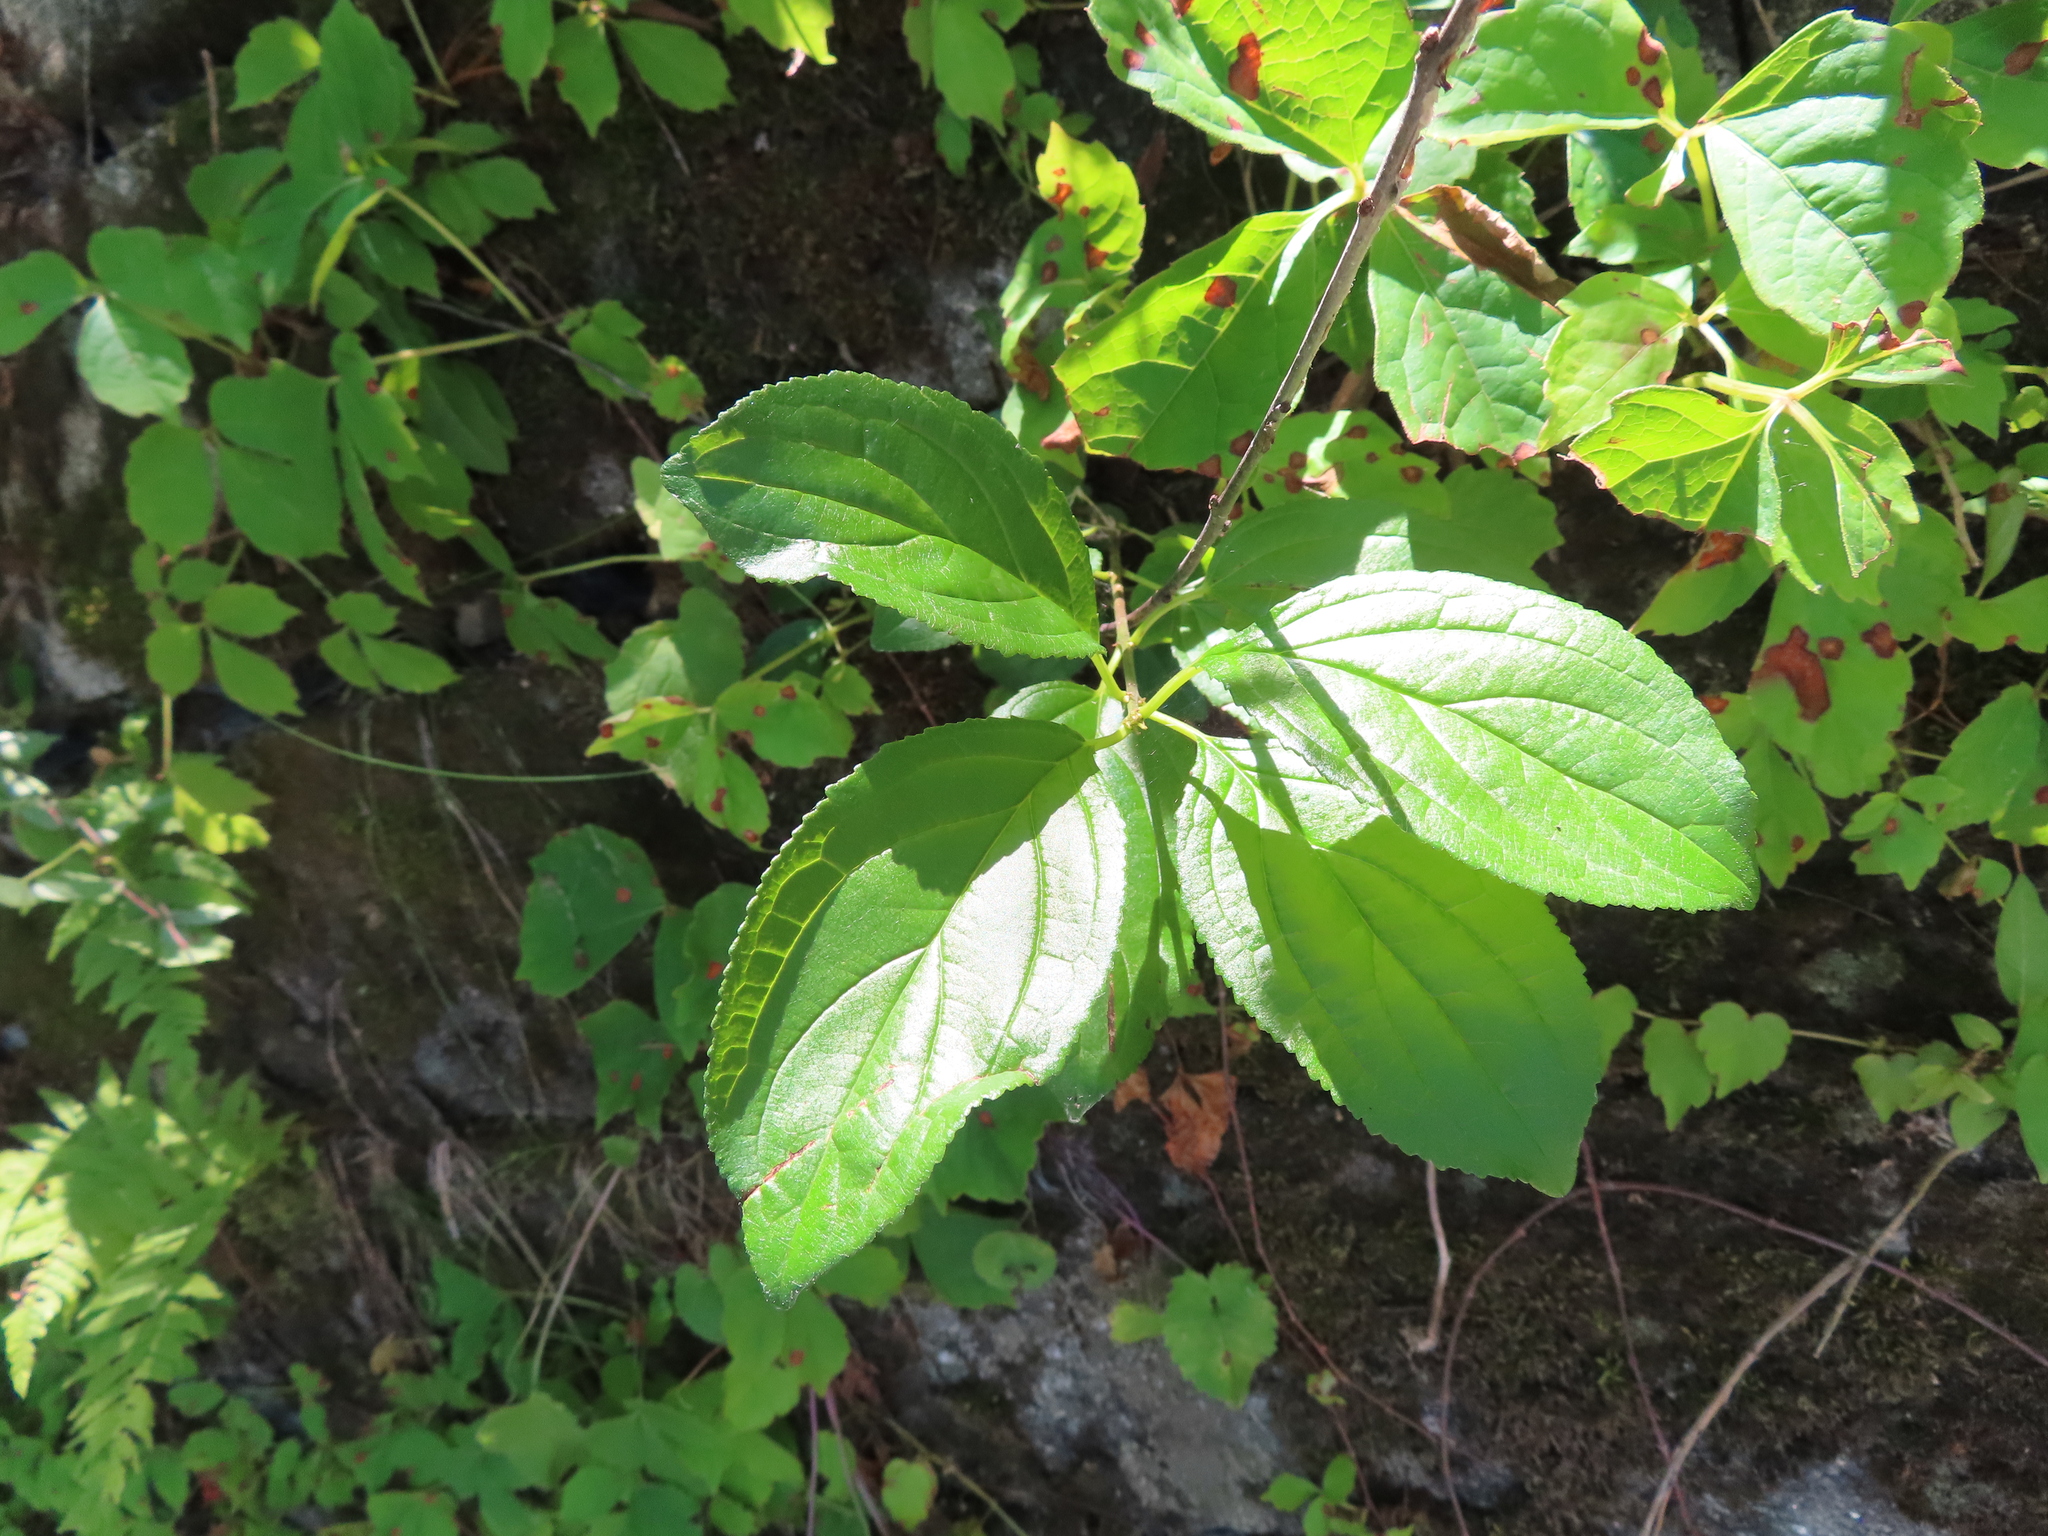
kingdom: Plantae
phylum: Tracheophyta
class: Magnoliopsida
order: Rosales
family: Rhamnaceae
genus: Rhamnus
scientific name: Rhamnus cathartica
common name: Common buckthorn
